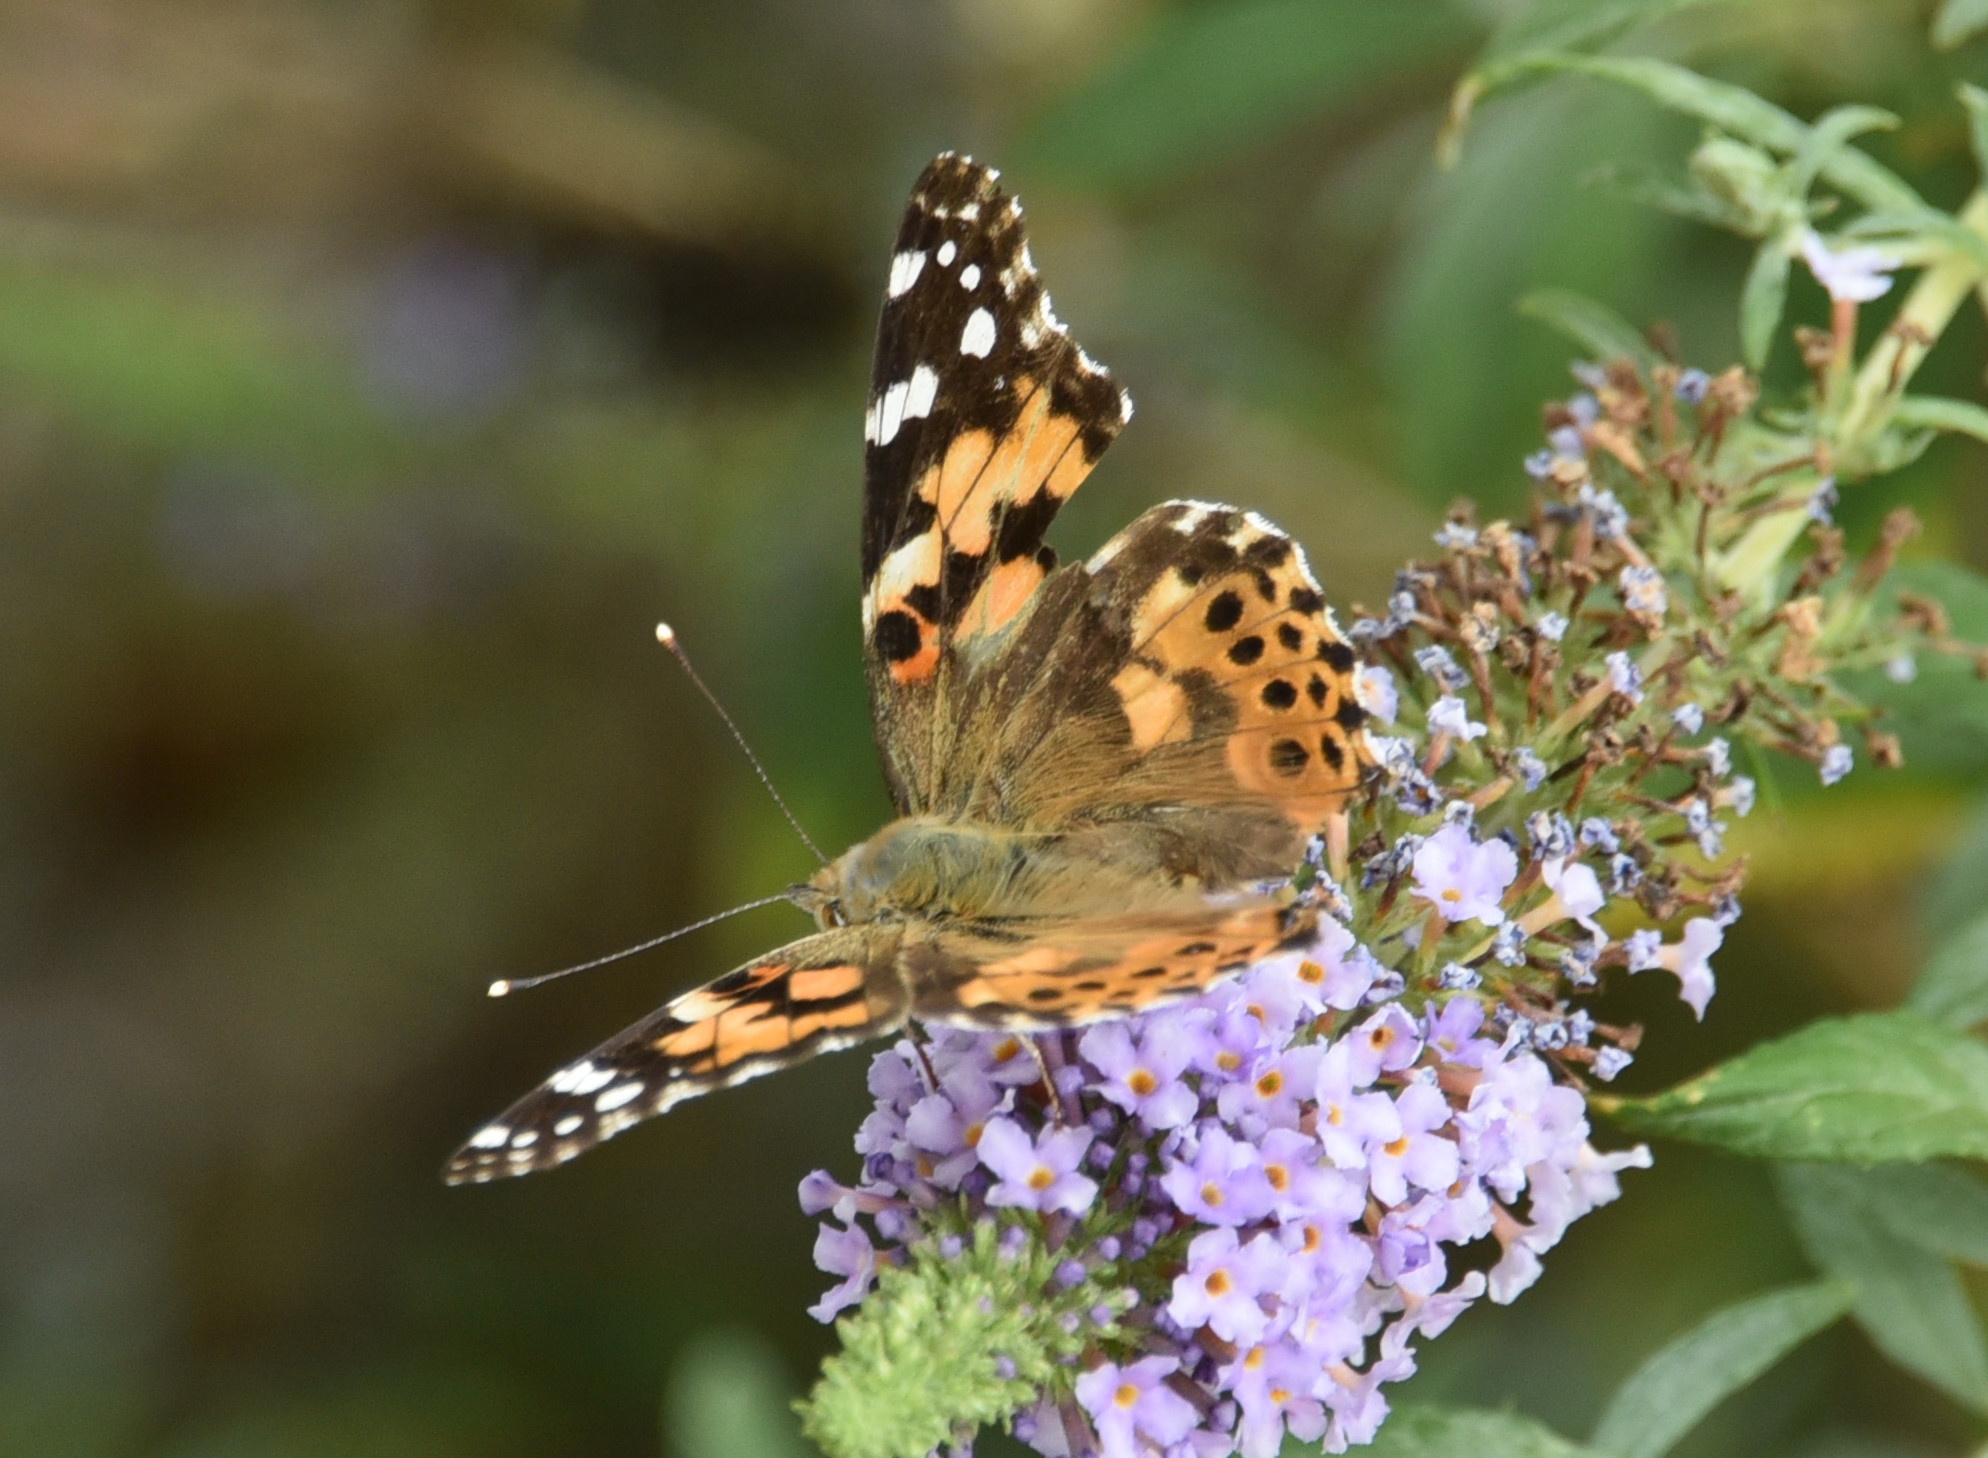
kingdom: Animalia
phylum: Arthropoda
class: Insecta
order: Lepidoptera
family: Nymphalidae
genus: Vanessa
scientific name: Vanessa cardui
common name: Painted lady
